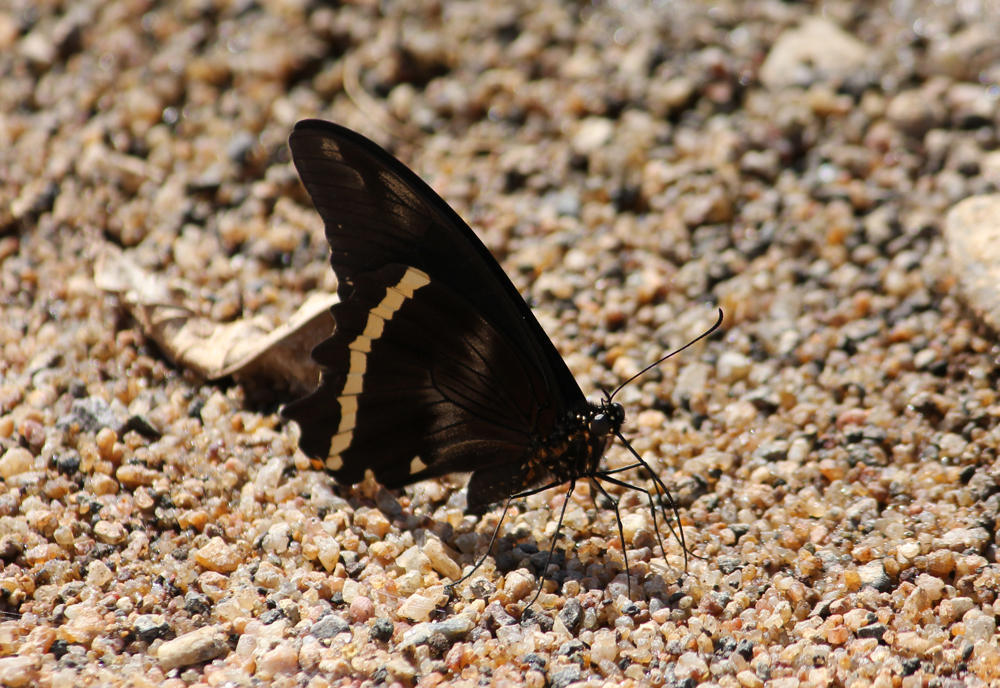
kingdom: Animalia
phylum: Arthropoda
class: Insecta
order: Lepidoptera
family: Papilionidae
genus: Papilio
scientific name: Papilio nireus
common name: Greenbanded swallowtail
